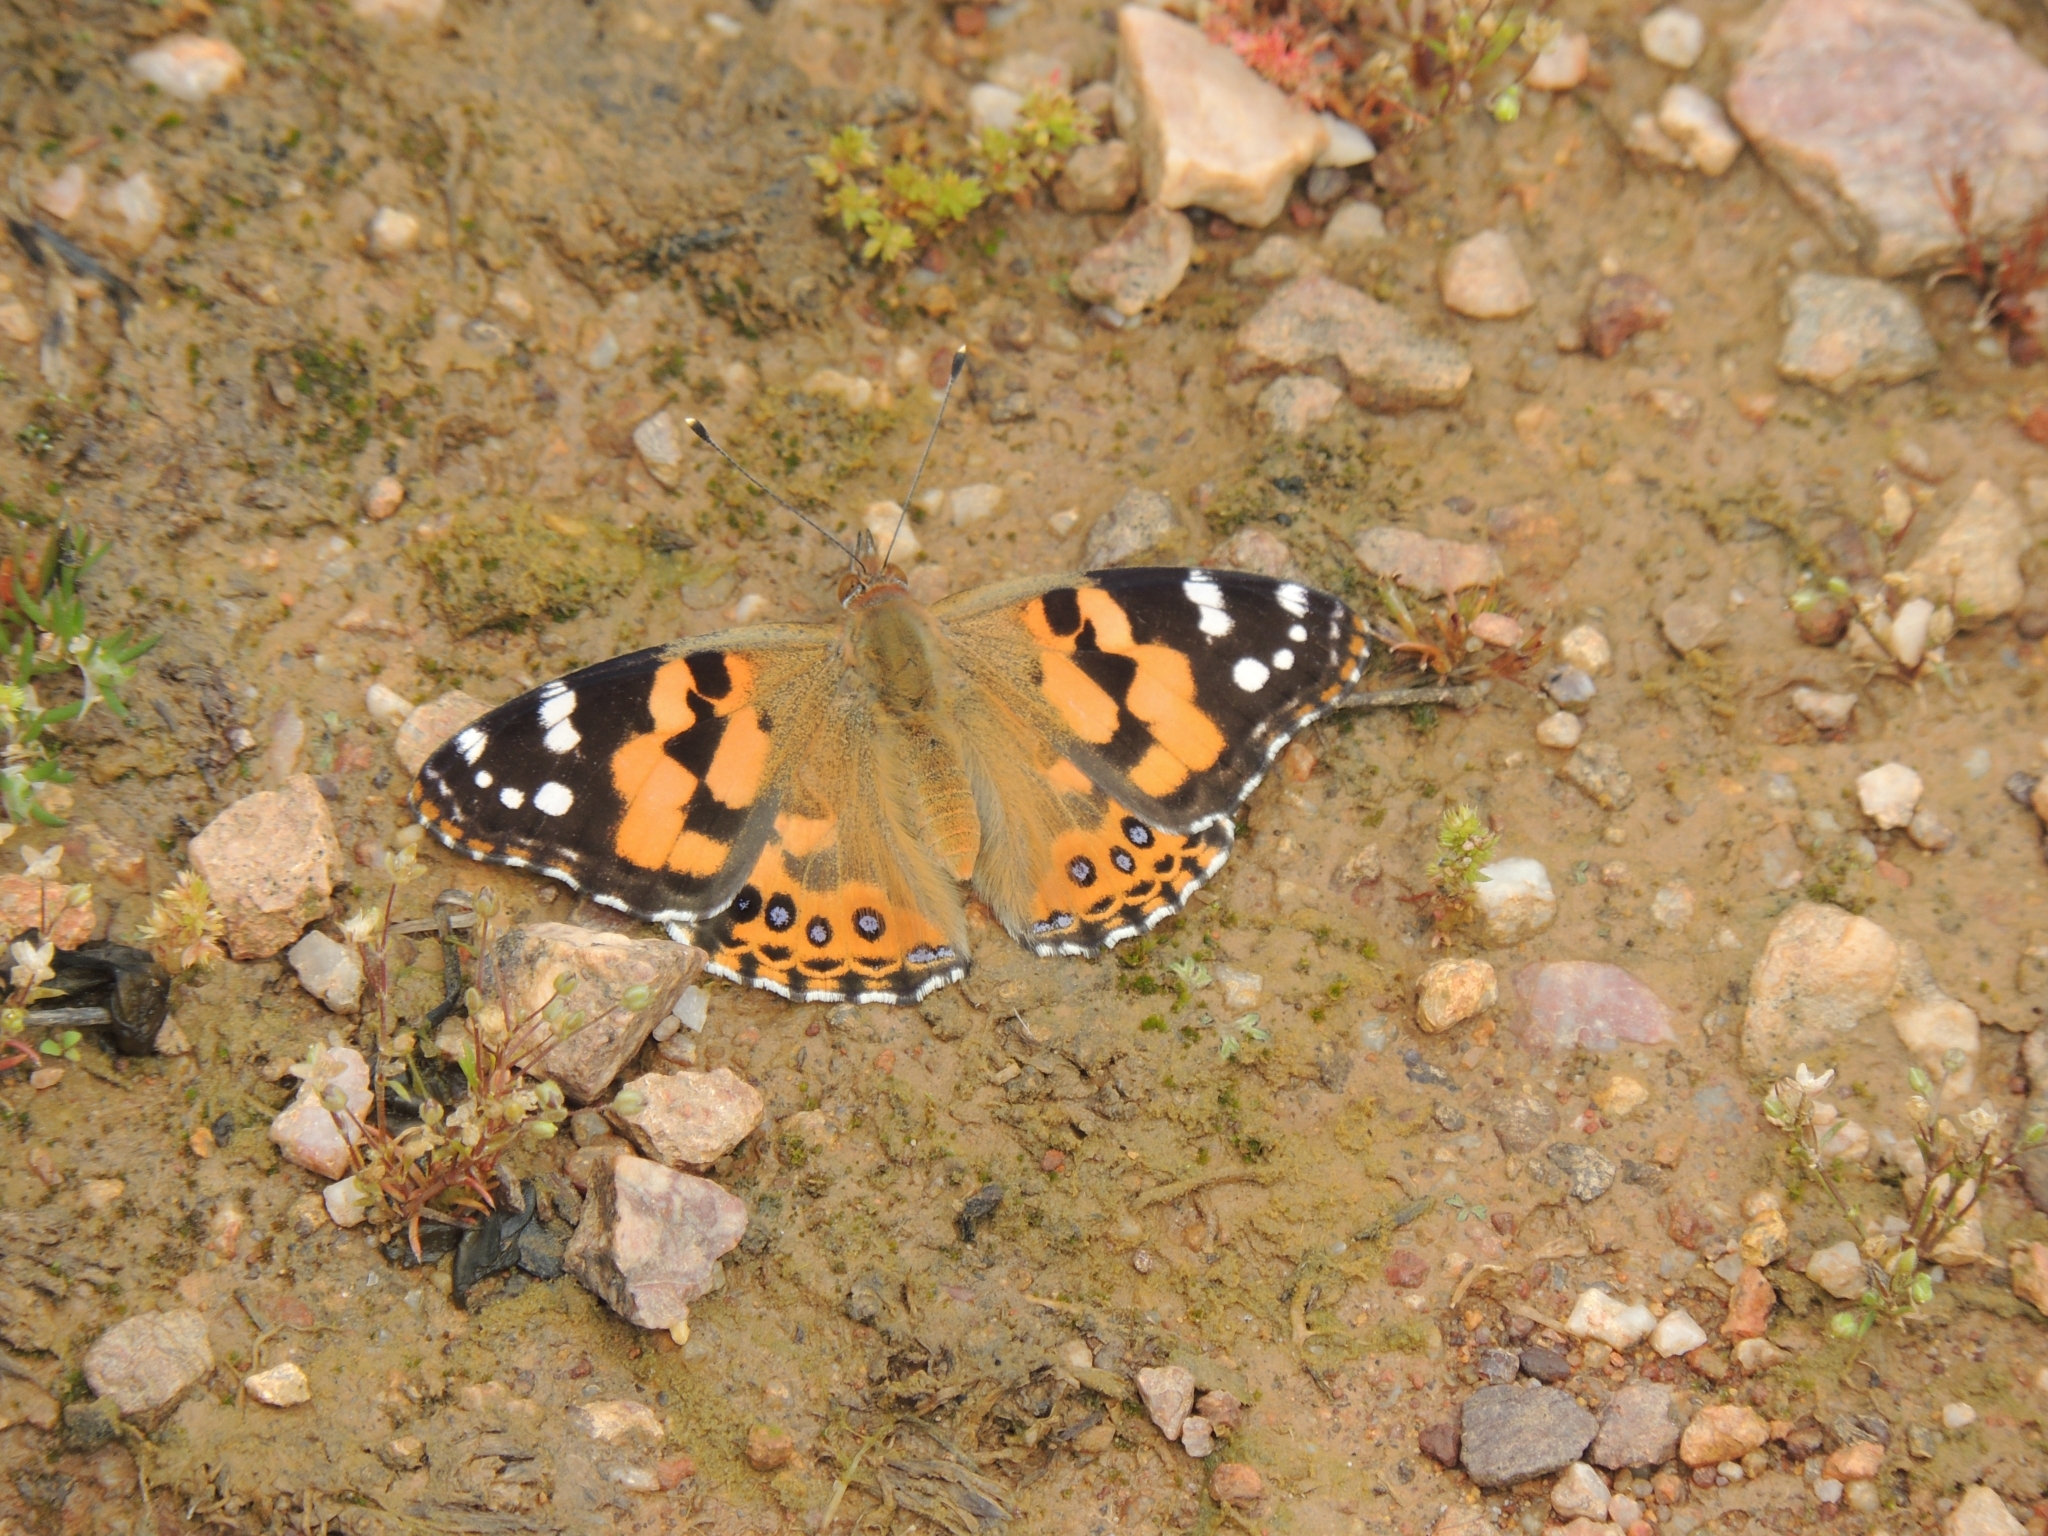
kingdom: Animalia
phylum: Arthropoda
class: Insecta
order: Lepidoptera
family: Nymphalidae
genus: Vanessa
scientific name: Vanessa kershawi
